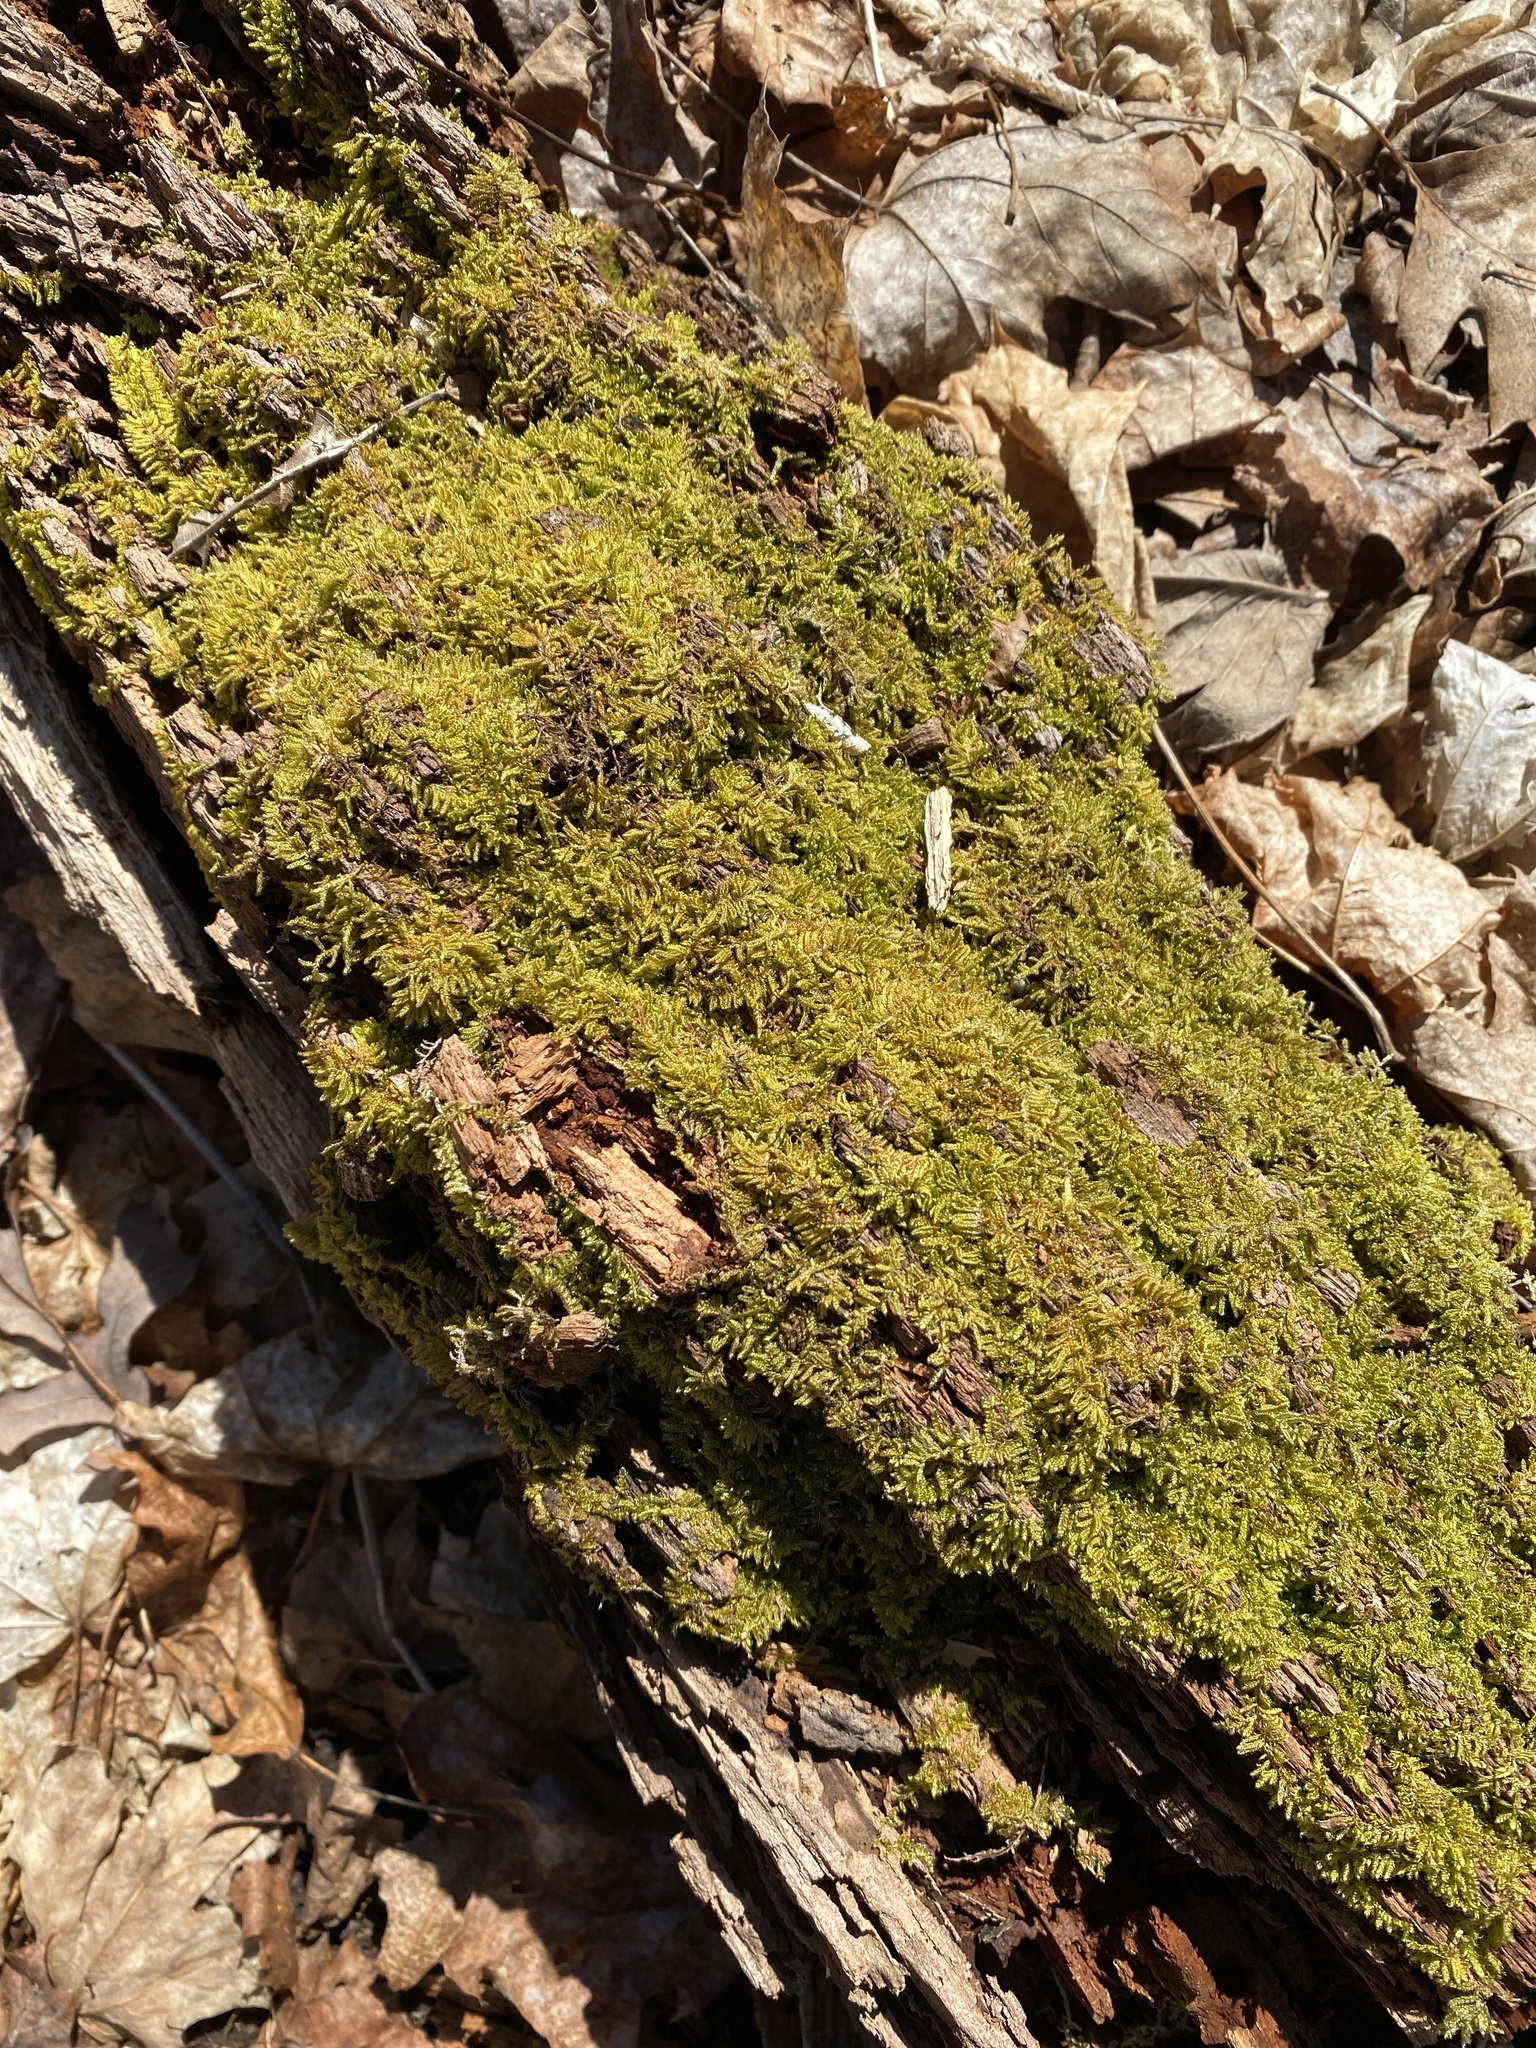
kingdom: Plantae
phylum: Bryophyta
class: Bryopsida
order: Hypnales
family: Callicladiaceae
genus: Callicladium
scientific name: Callicladium imponens
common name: Brocade moss
